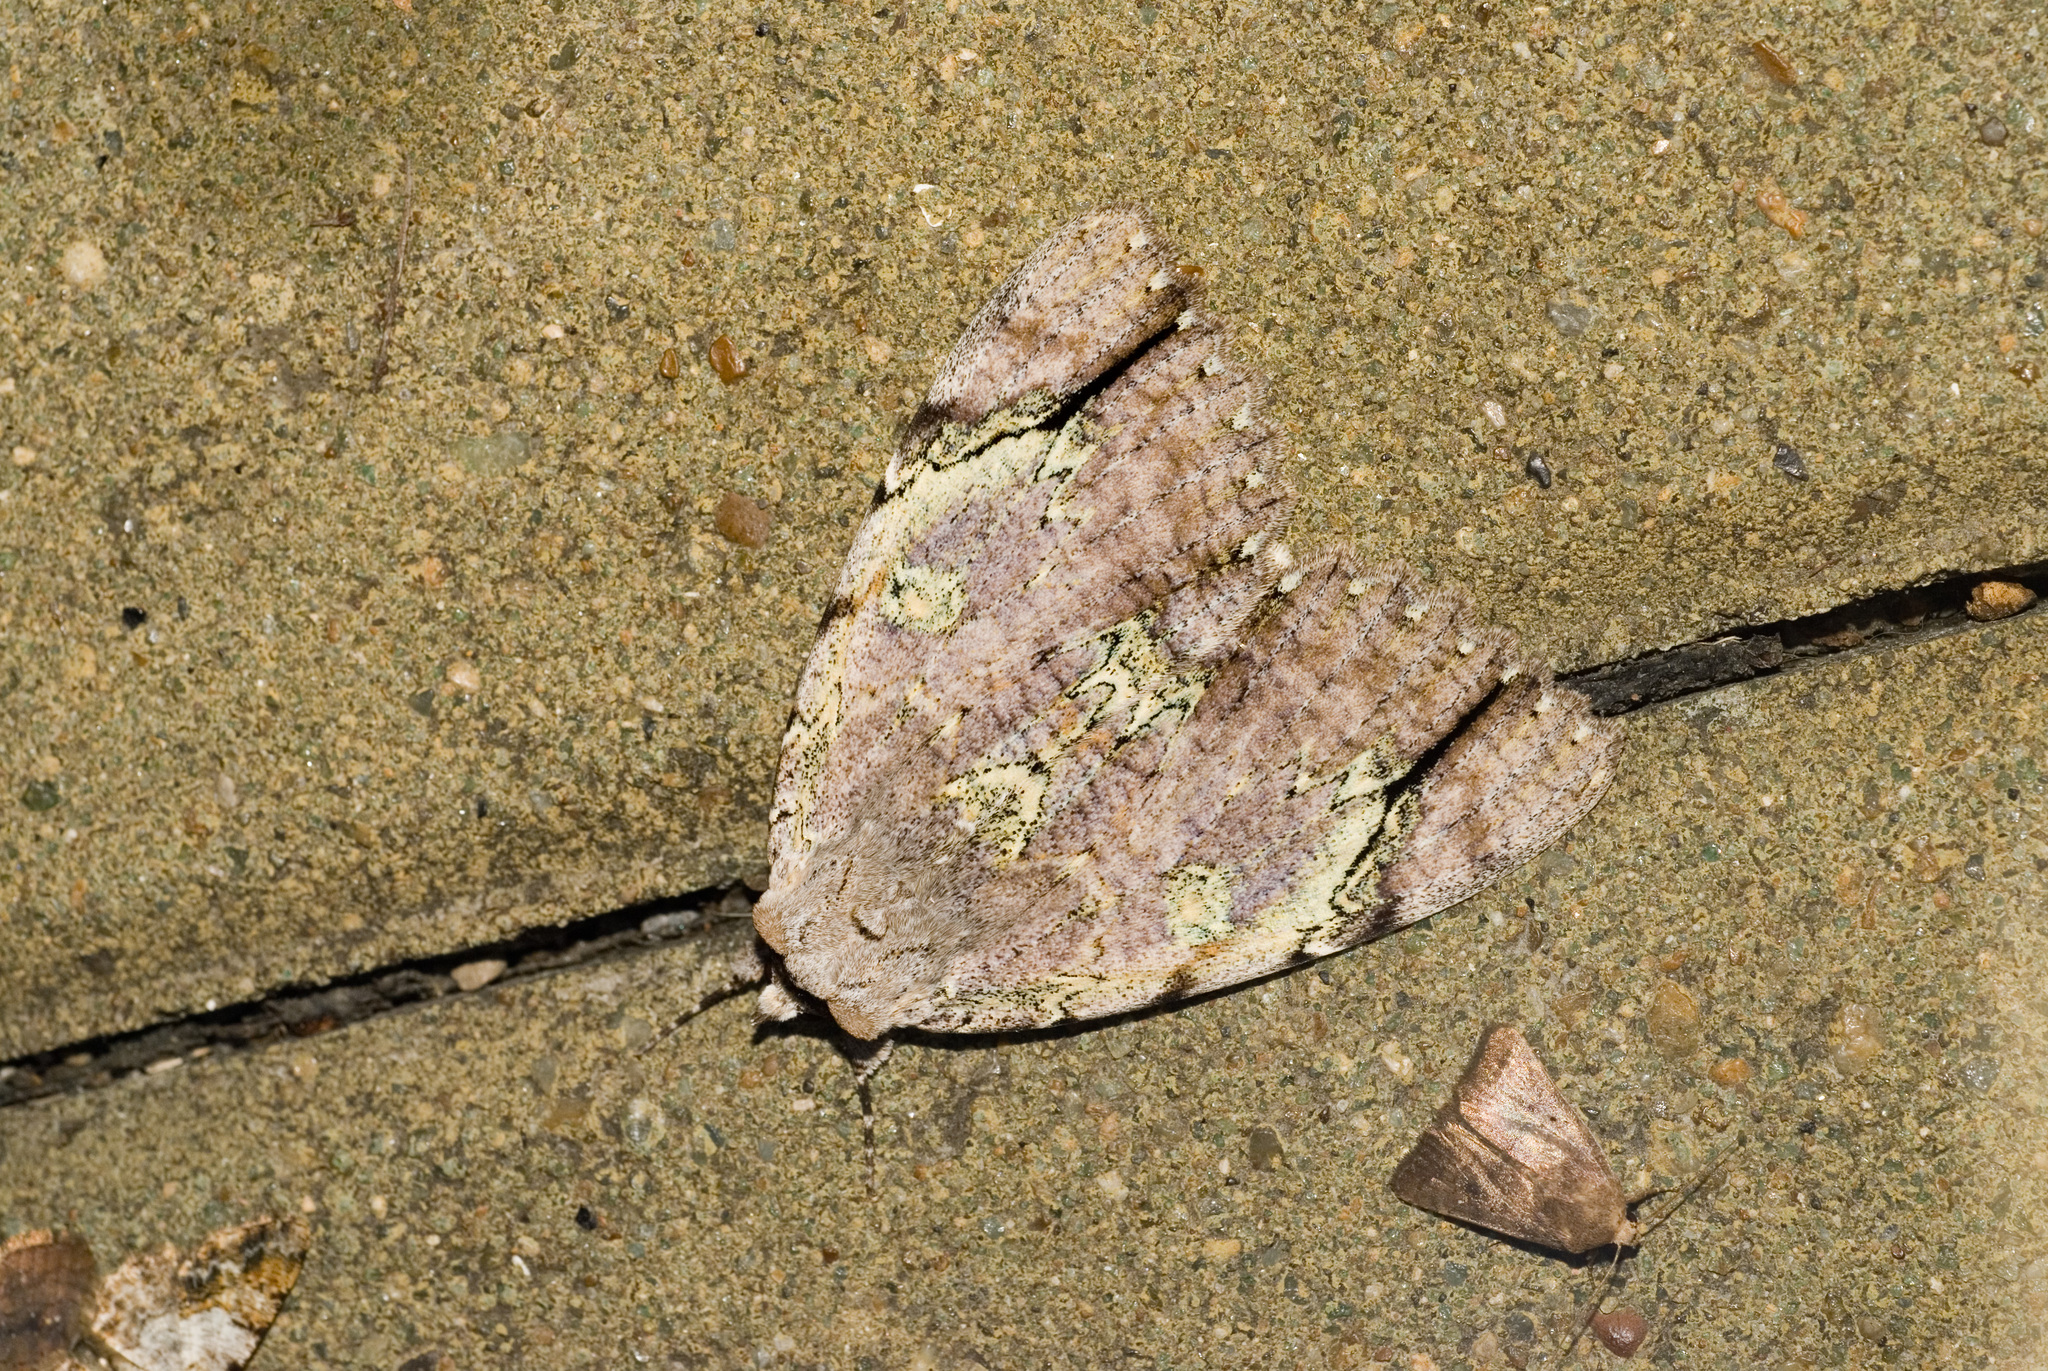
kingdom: Animalia
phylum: Arthropoda
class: Insecta
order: Lepidoptera
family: Erebidae
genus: Catocala
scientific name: Catocala nivea
